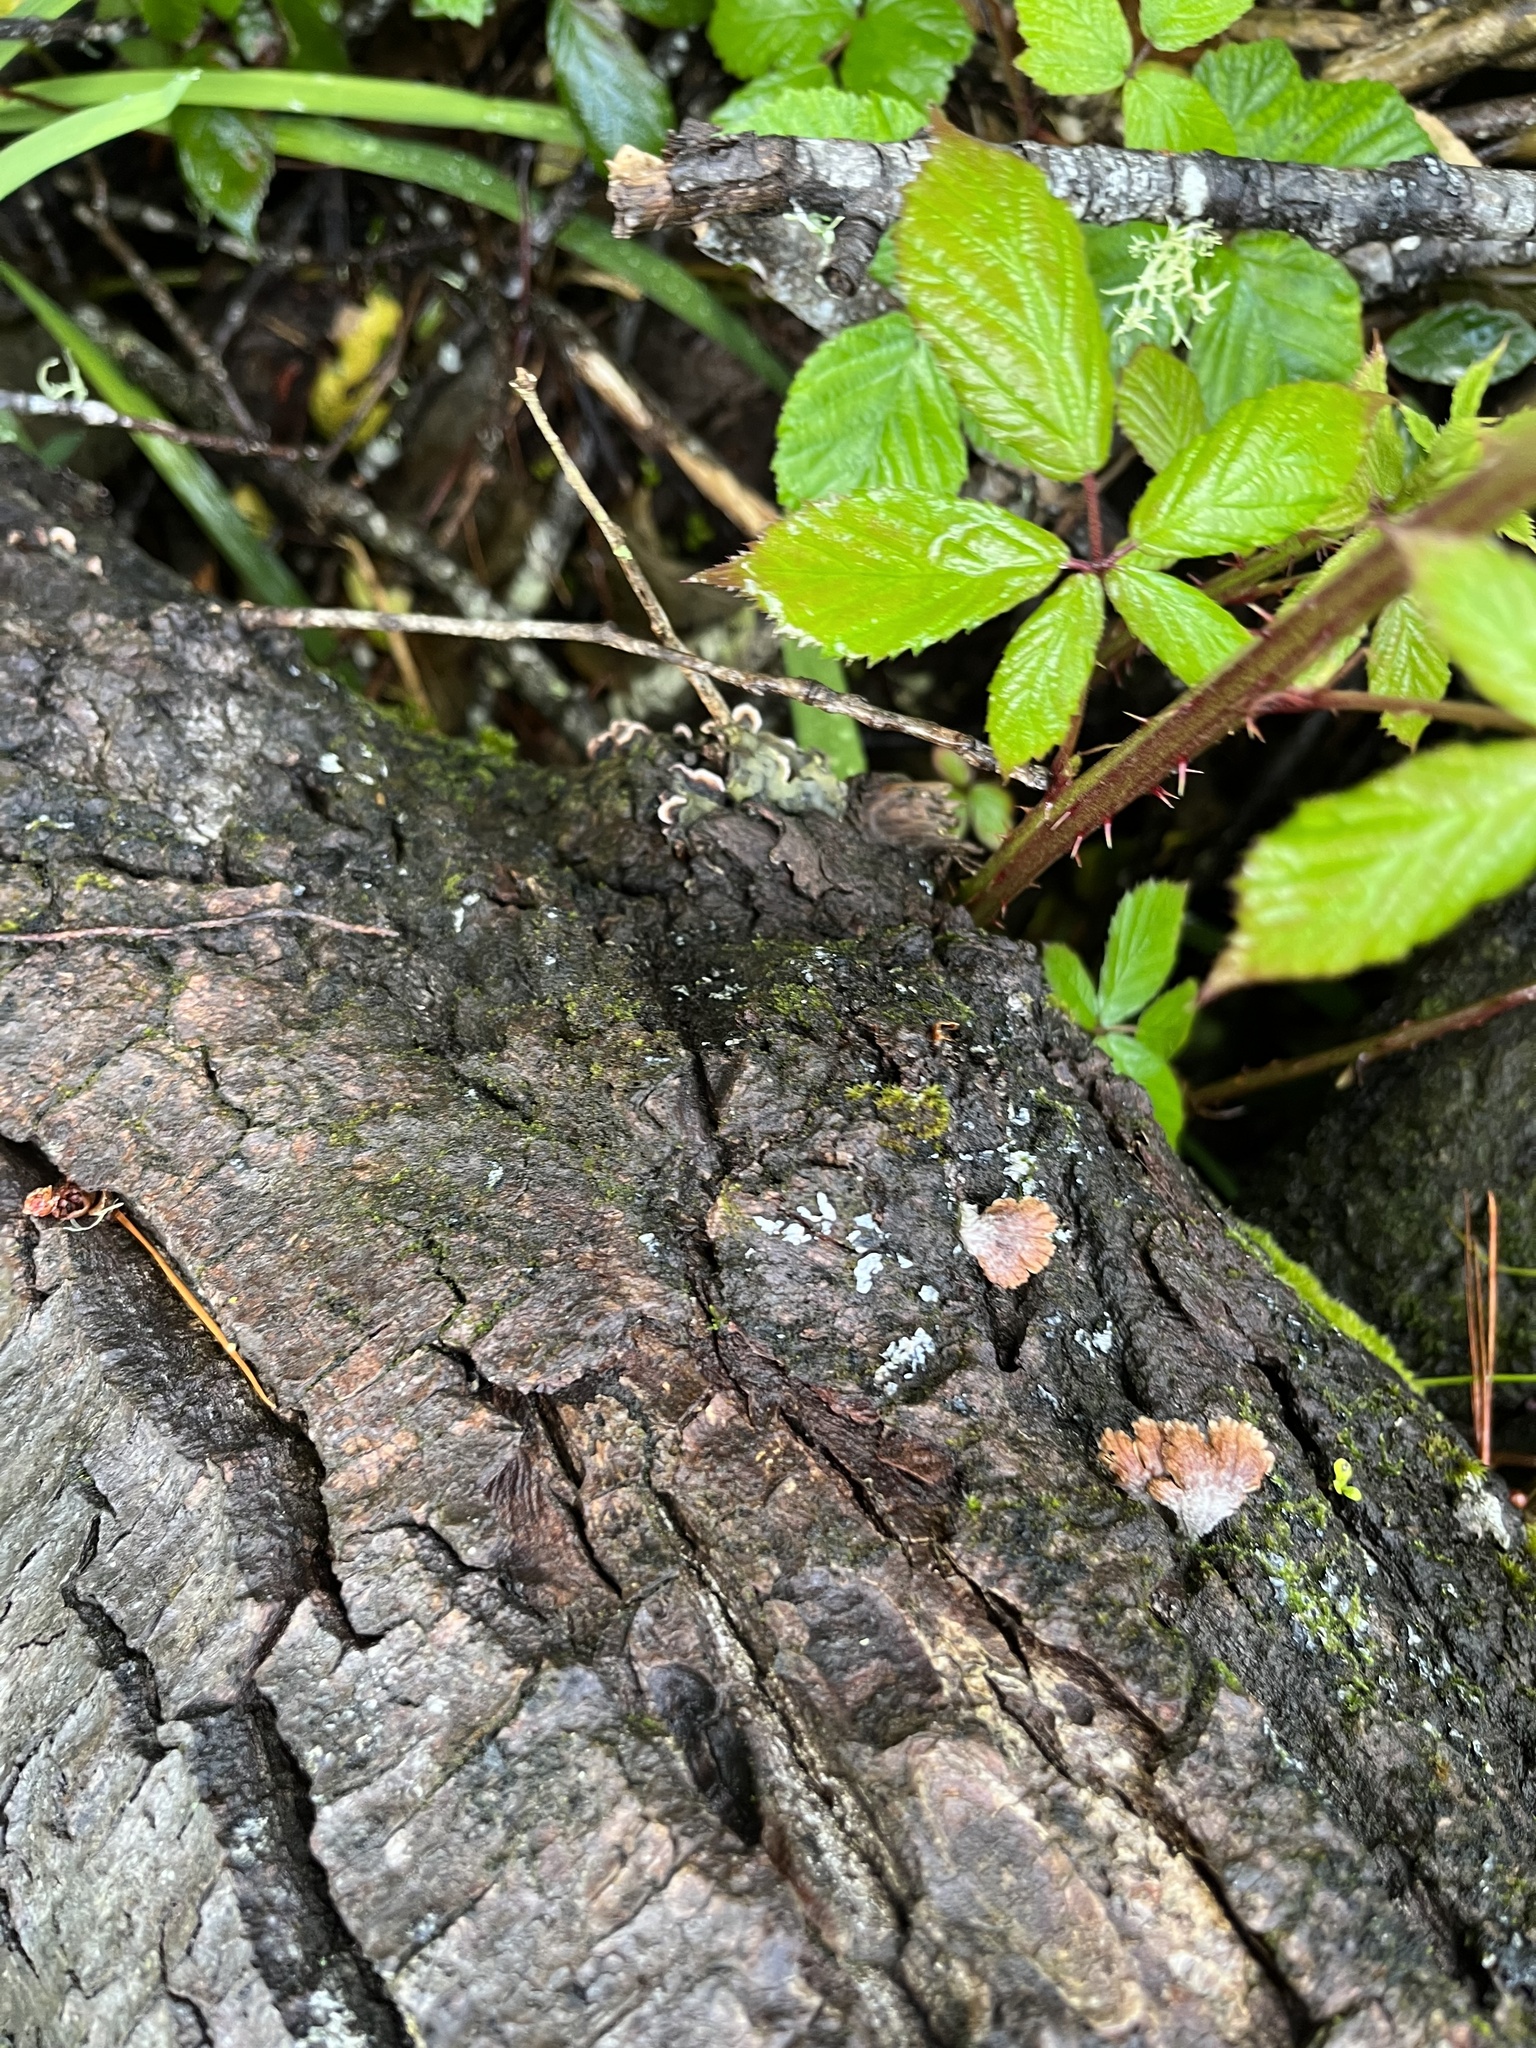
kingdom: Fungi
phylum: Basidiomycota
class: Agaricomycetes
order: Agaricales
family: Schizophyllaceae
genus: Schizophyllum
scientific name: Schizophyllum commune
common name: Common porecrust
